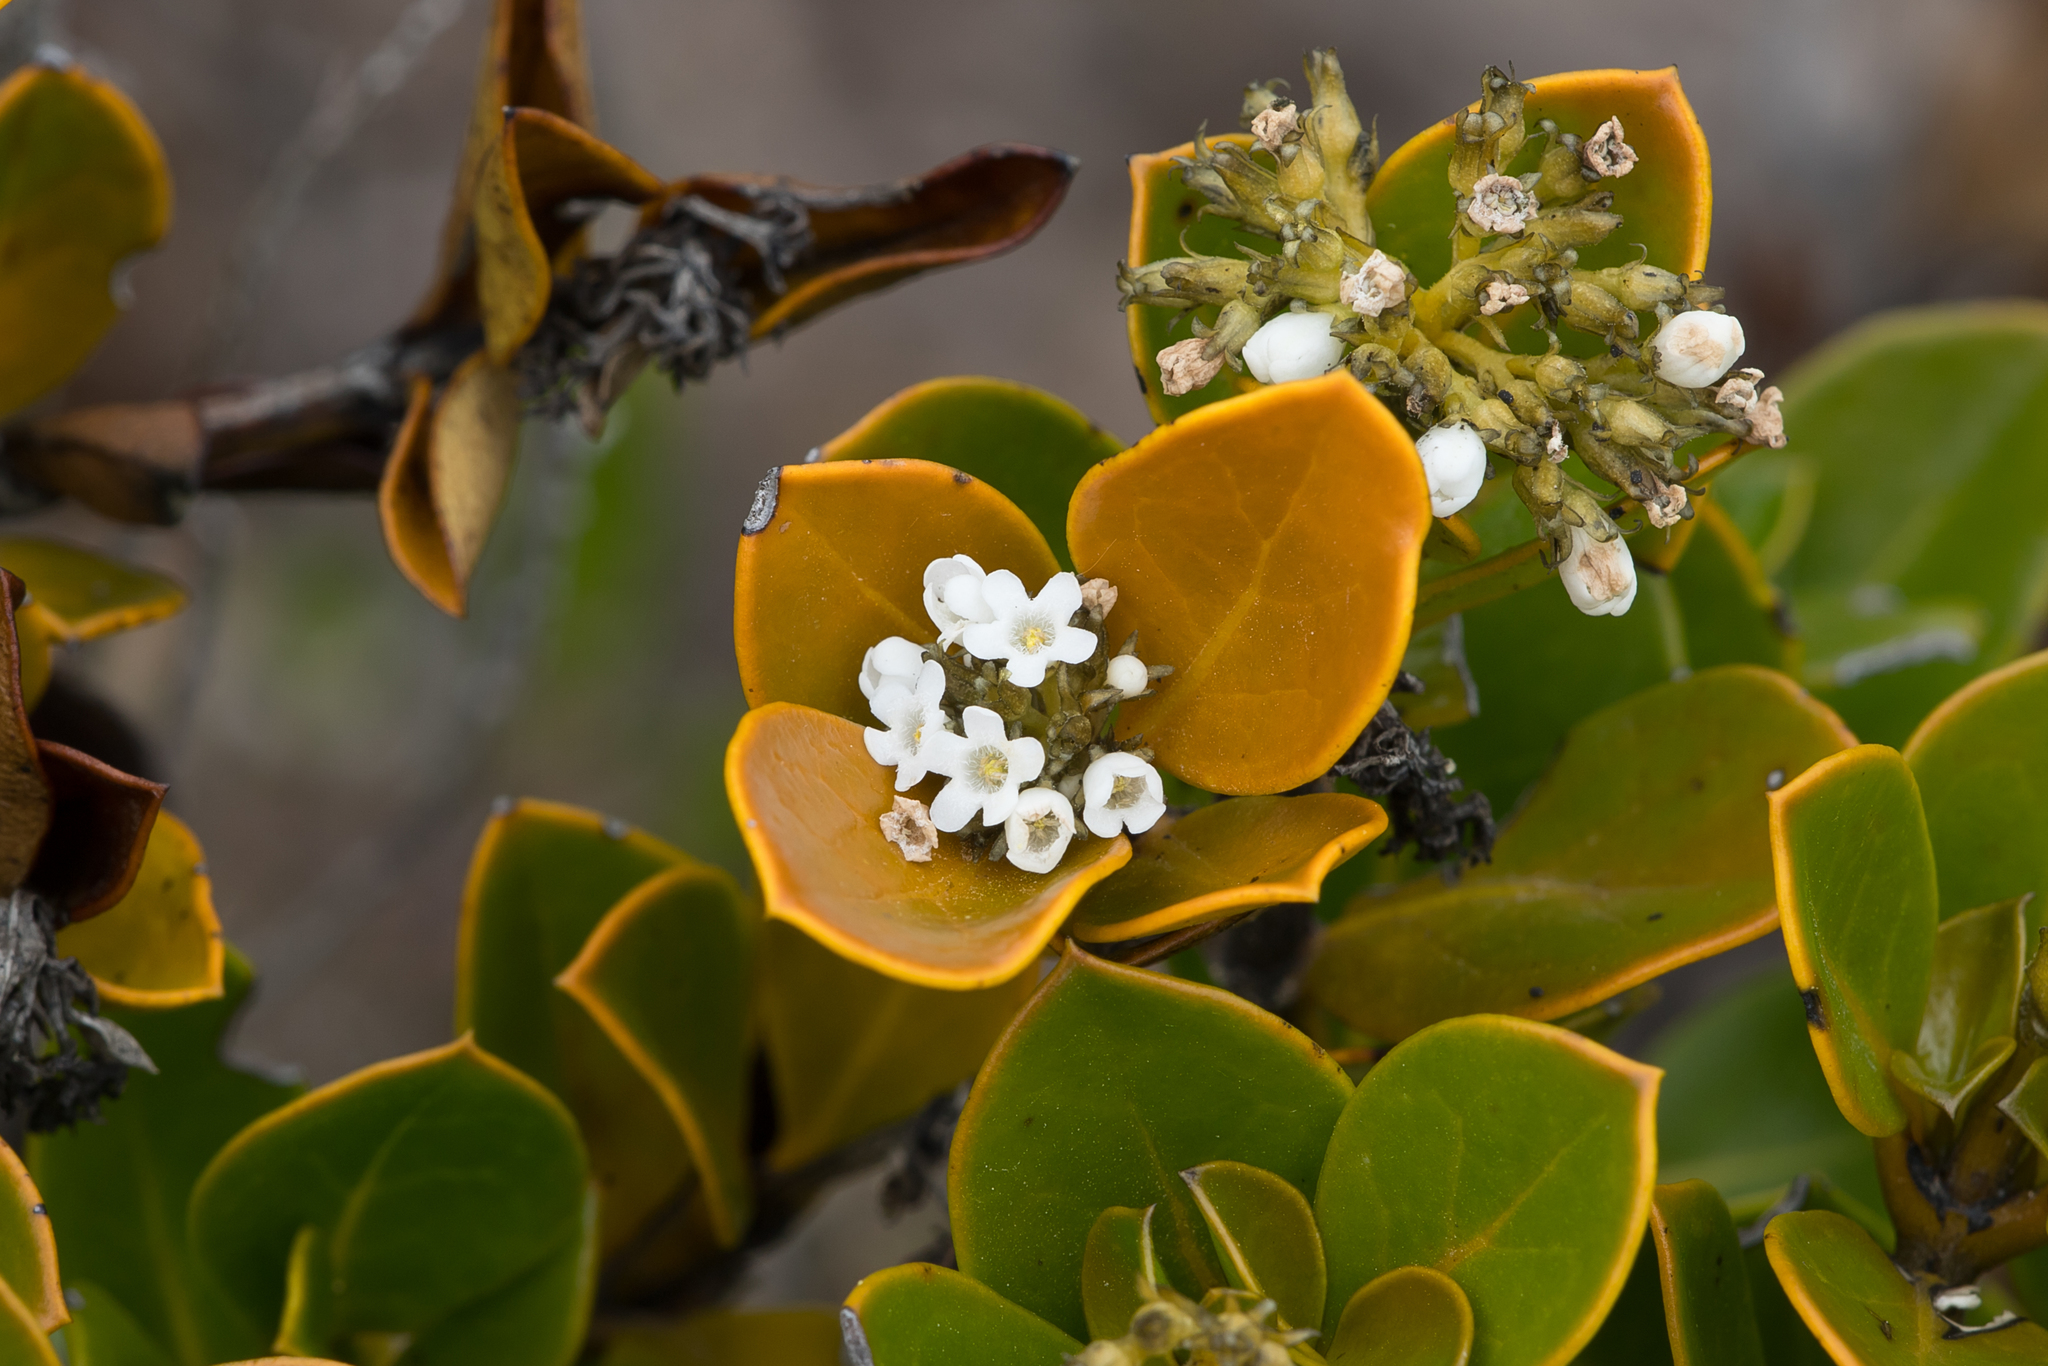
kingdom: Plantae
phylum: Tracheophyta
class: Magnoliopsida
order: Gentianales
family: Loganiaceae
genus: Logania
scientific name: Logania crassifolia
